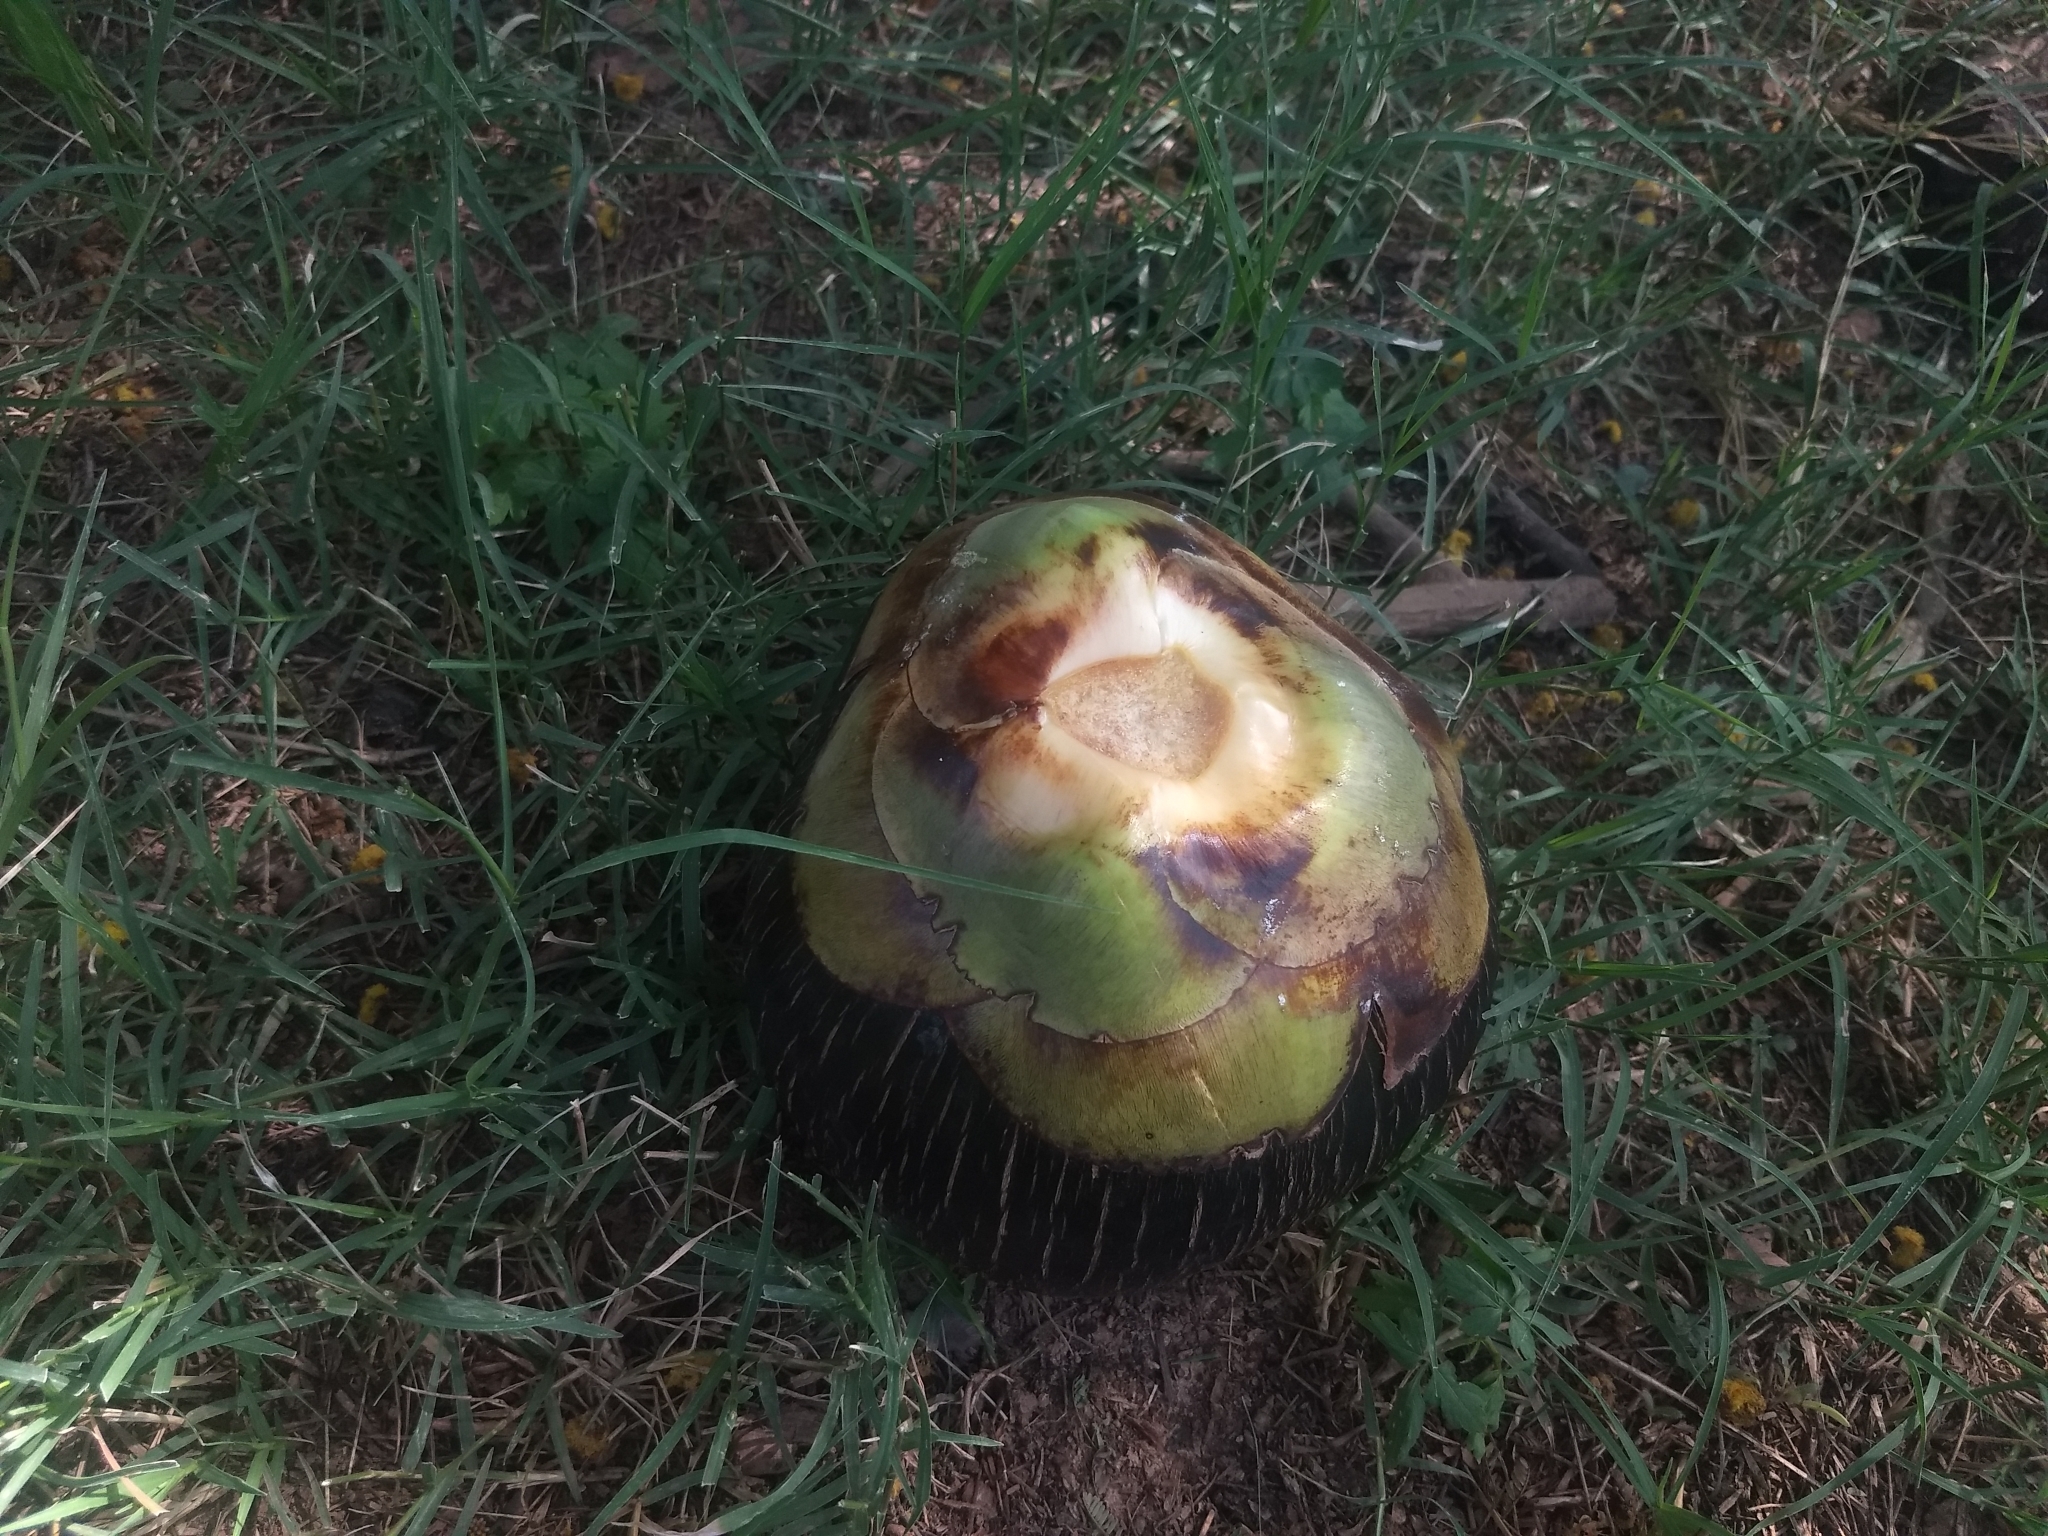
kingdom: Plantae
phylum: Tracheophyta
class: Magnoliopsida
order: Fabales
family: Fabaceae
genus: Tamarindus
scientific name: Tamarindus indica
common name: Tamarind
